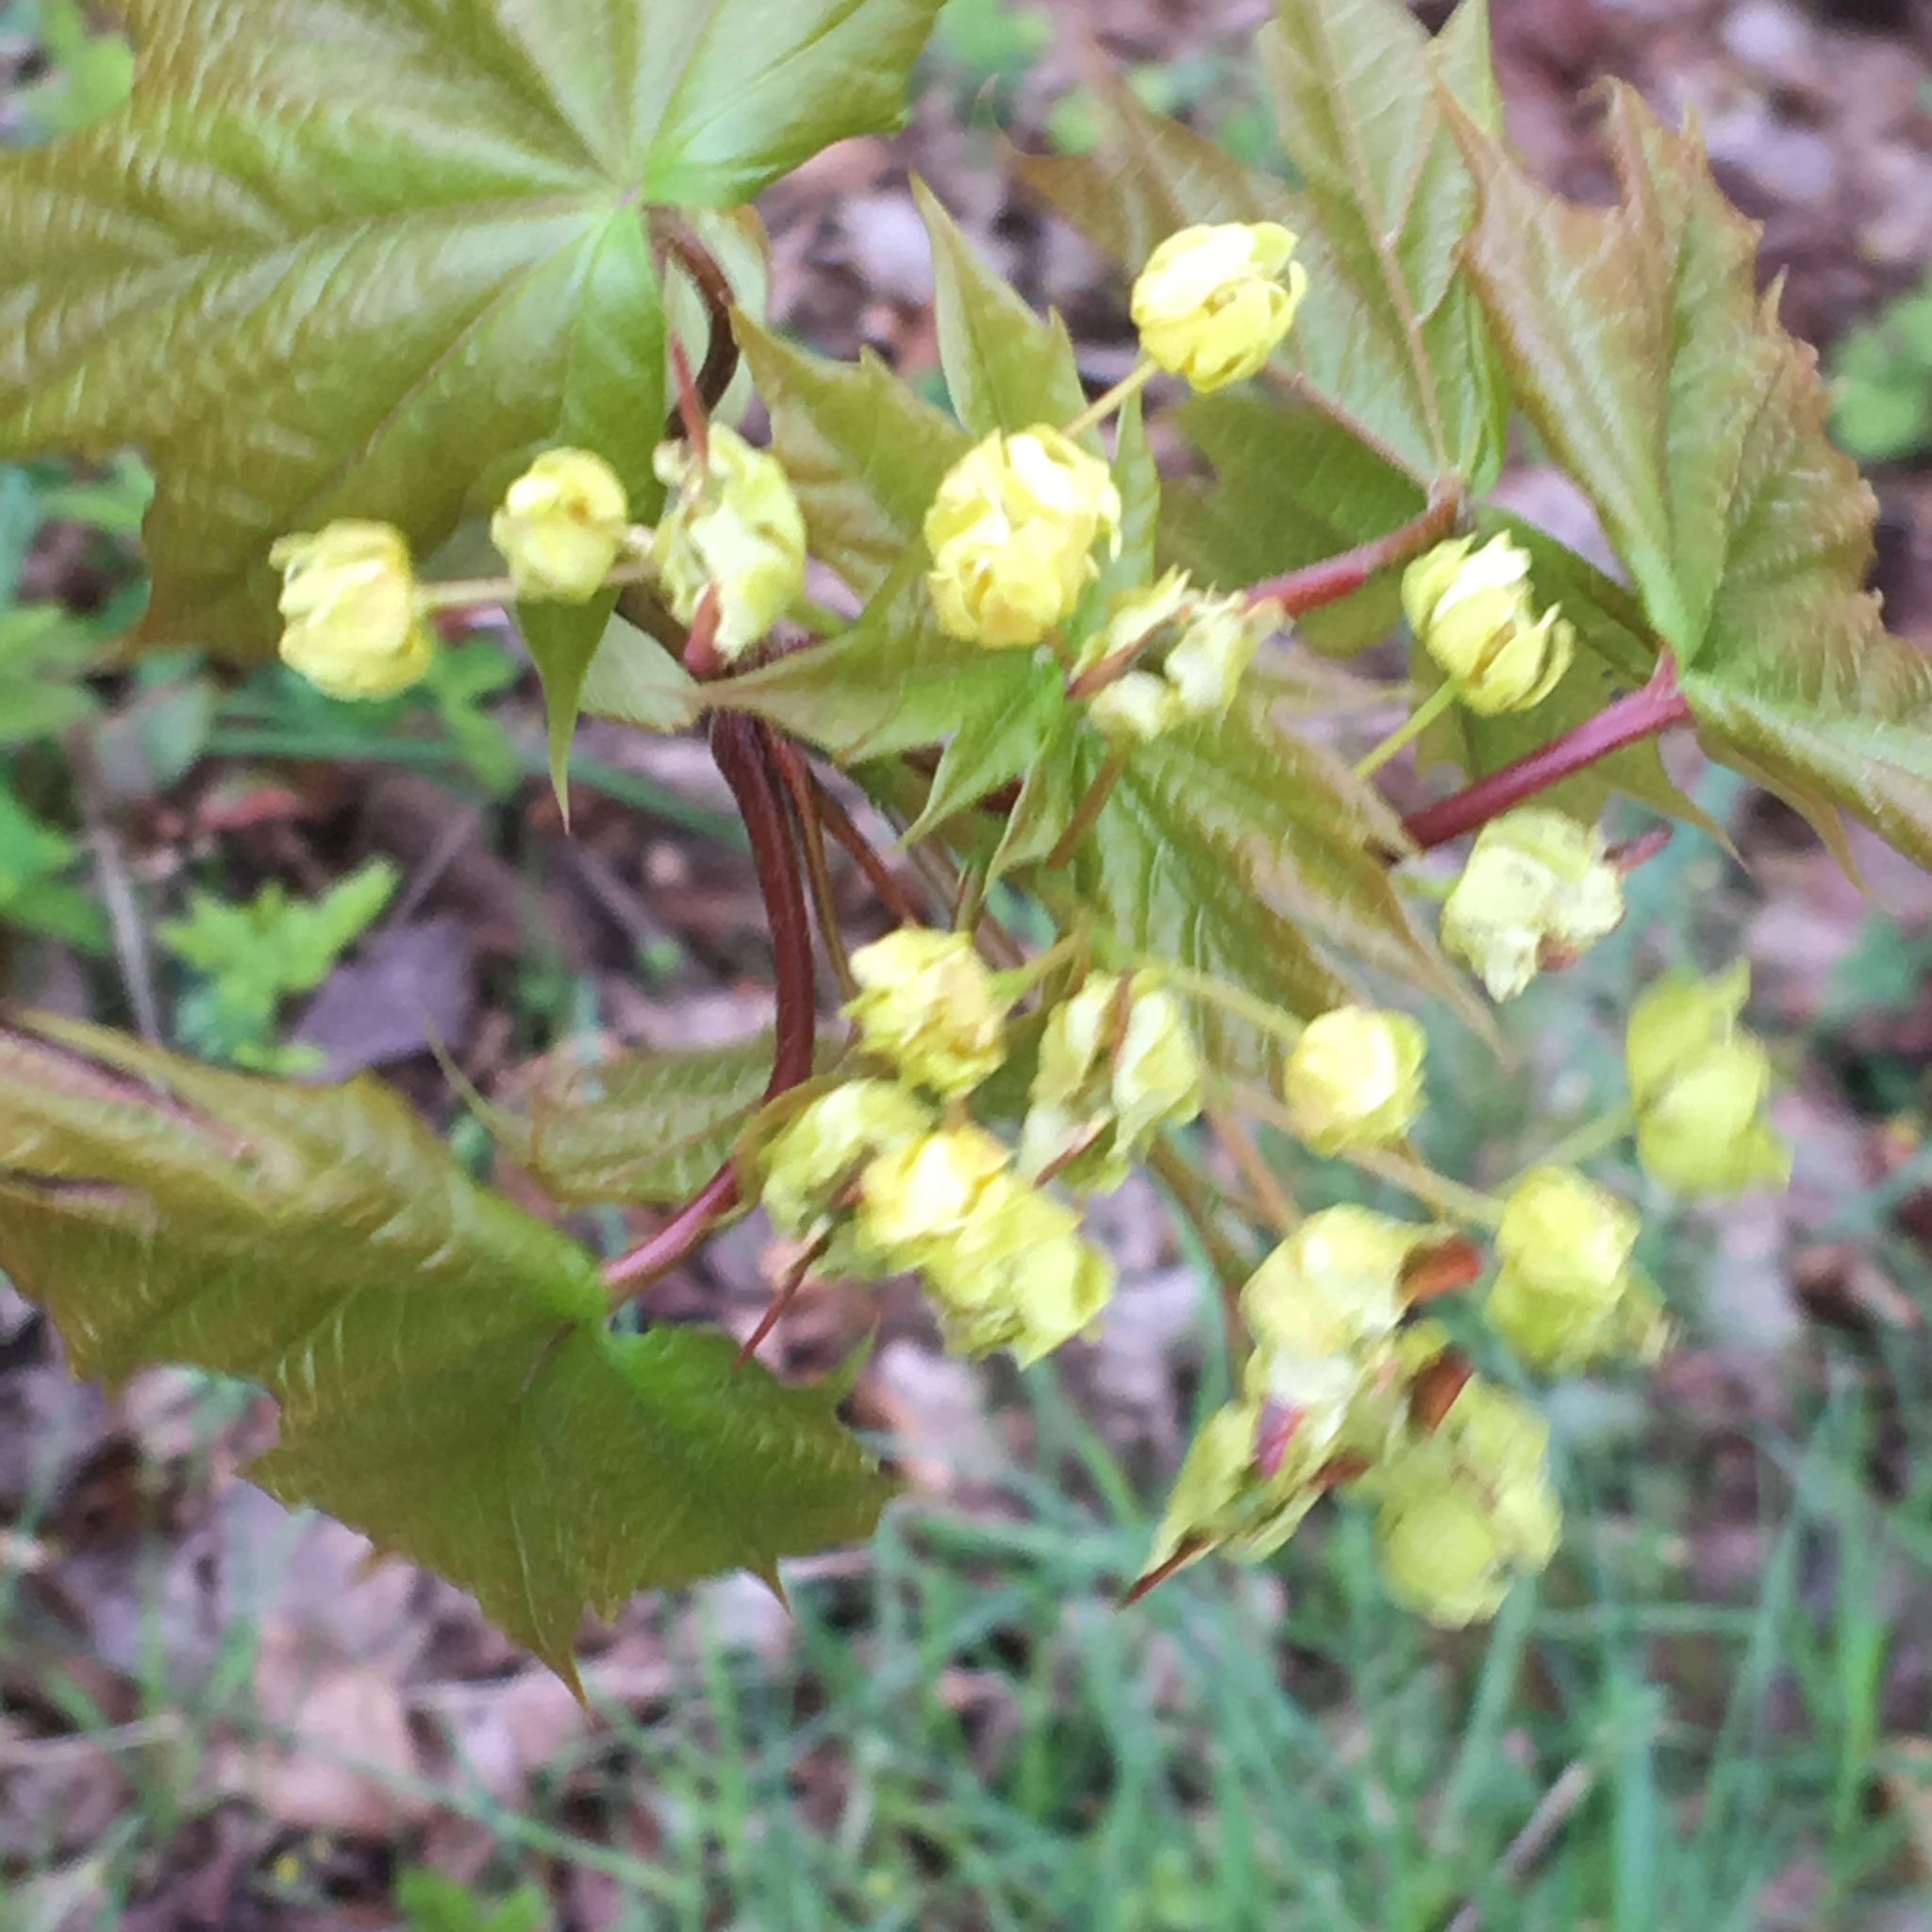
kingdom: Plantae
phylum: Tracheophyta
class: Magnoliopsida
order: Sapindales
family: Sapindaceae
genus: Acer
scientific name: Acer platanoides
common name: Norway maple
